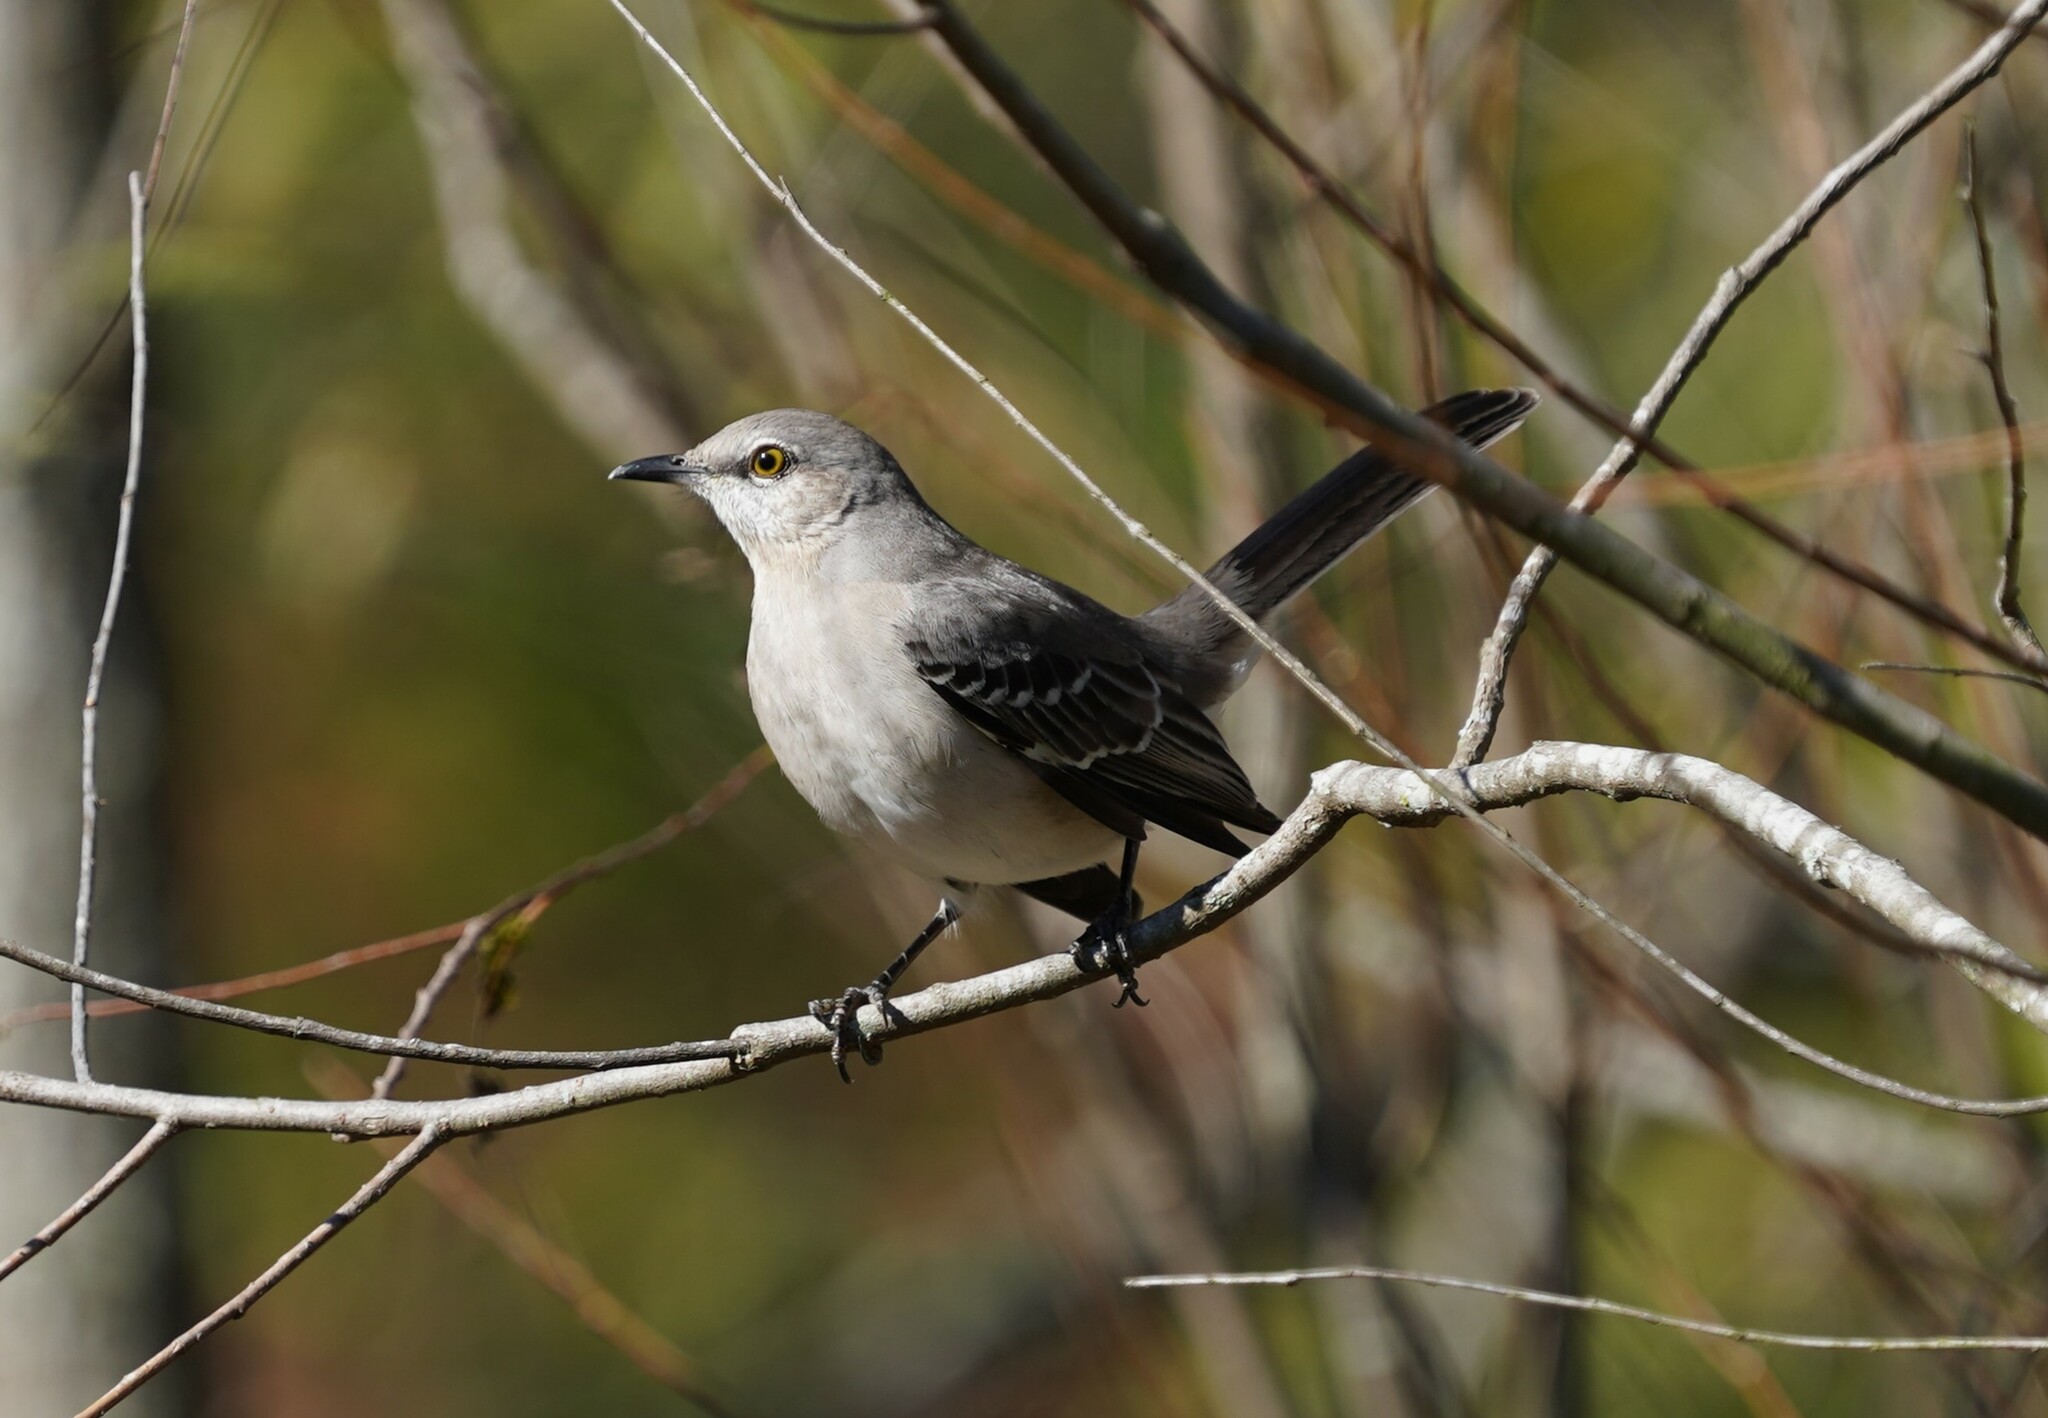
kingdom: Animalia
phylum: Chordata
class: Aves
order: Passeriformes
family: Mimidae
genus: Mimus
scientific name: Mimus polyglottos
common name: Northern mockingbird
